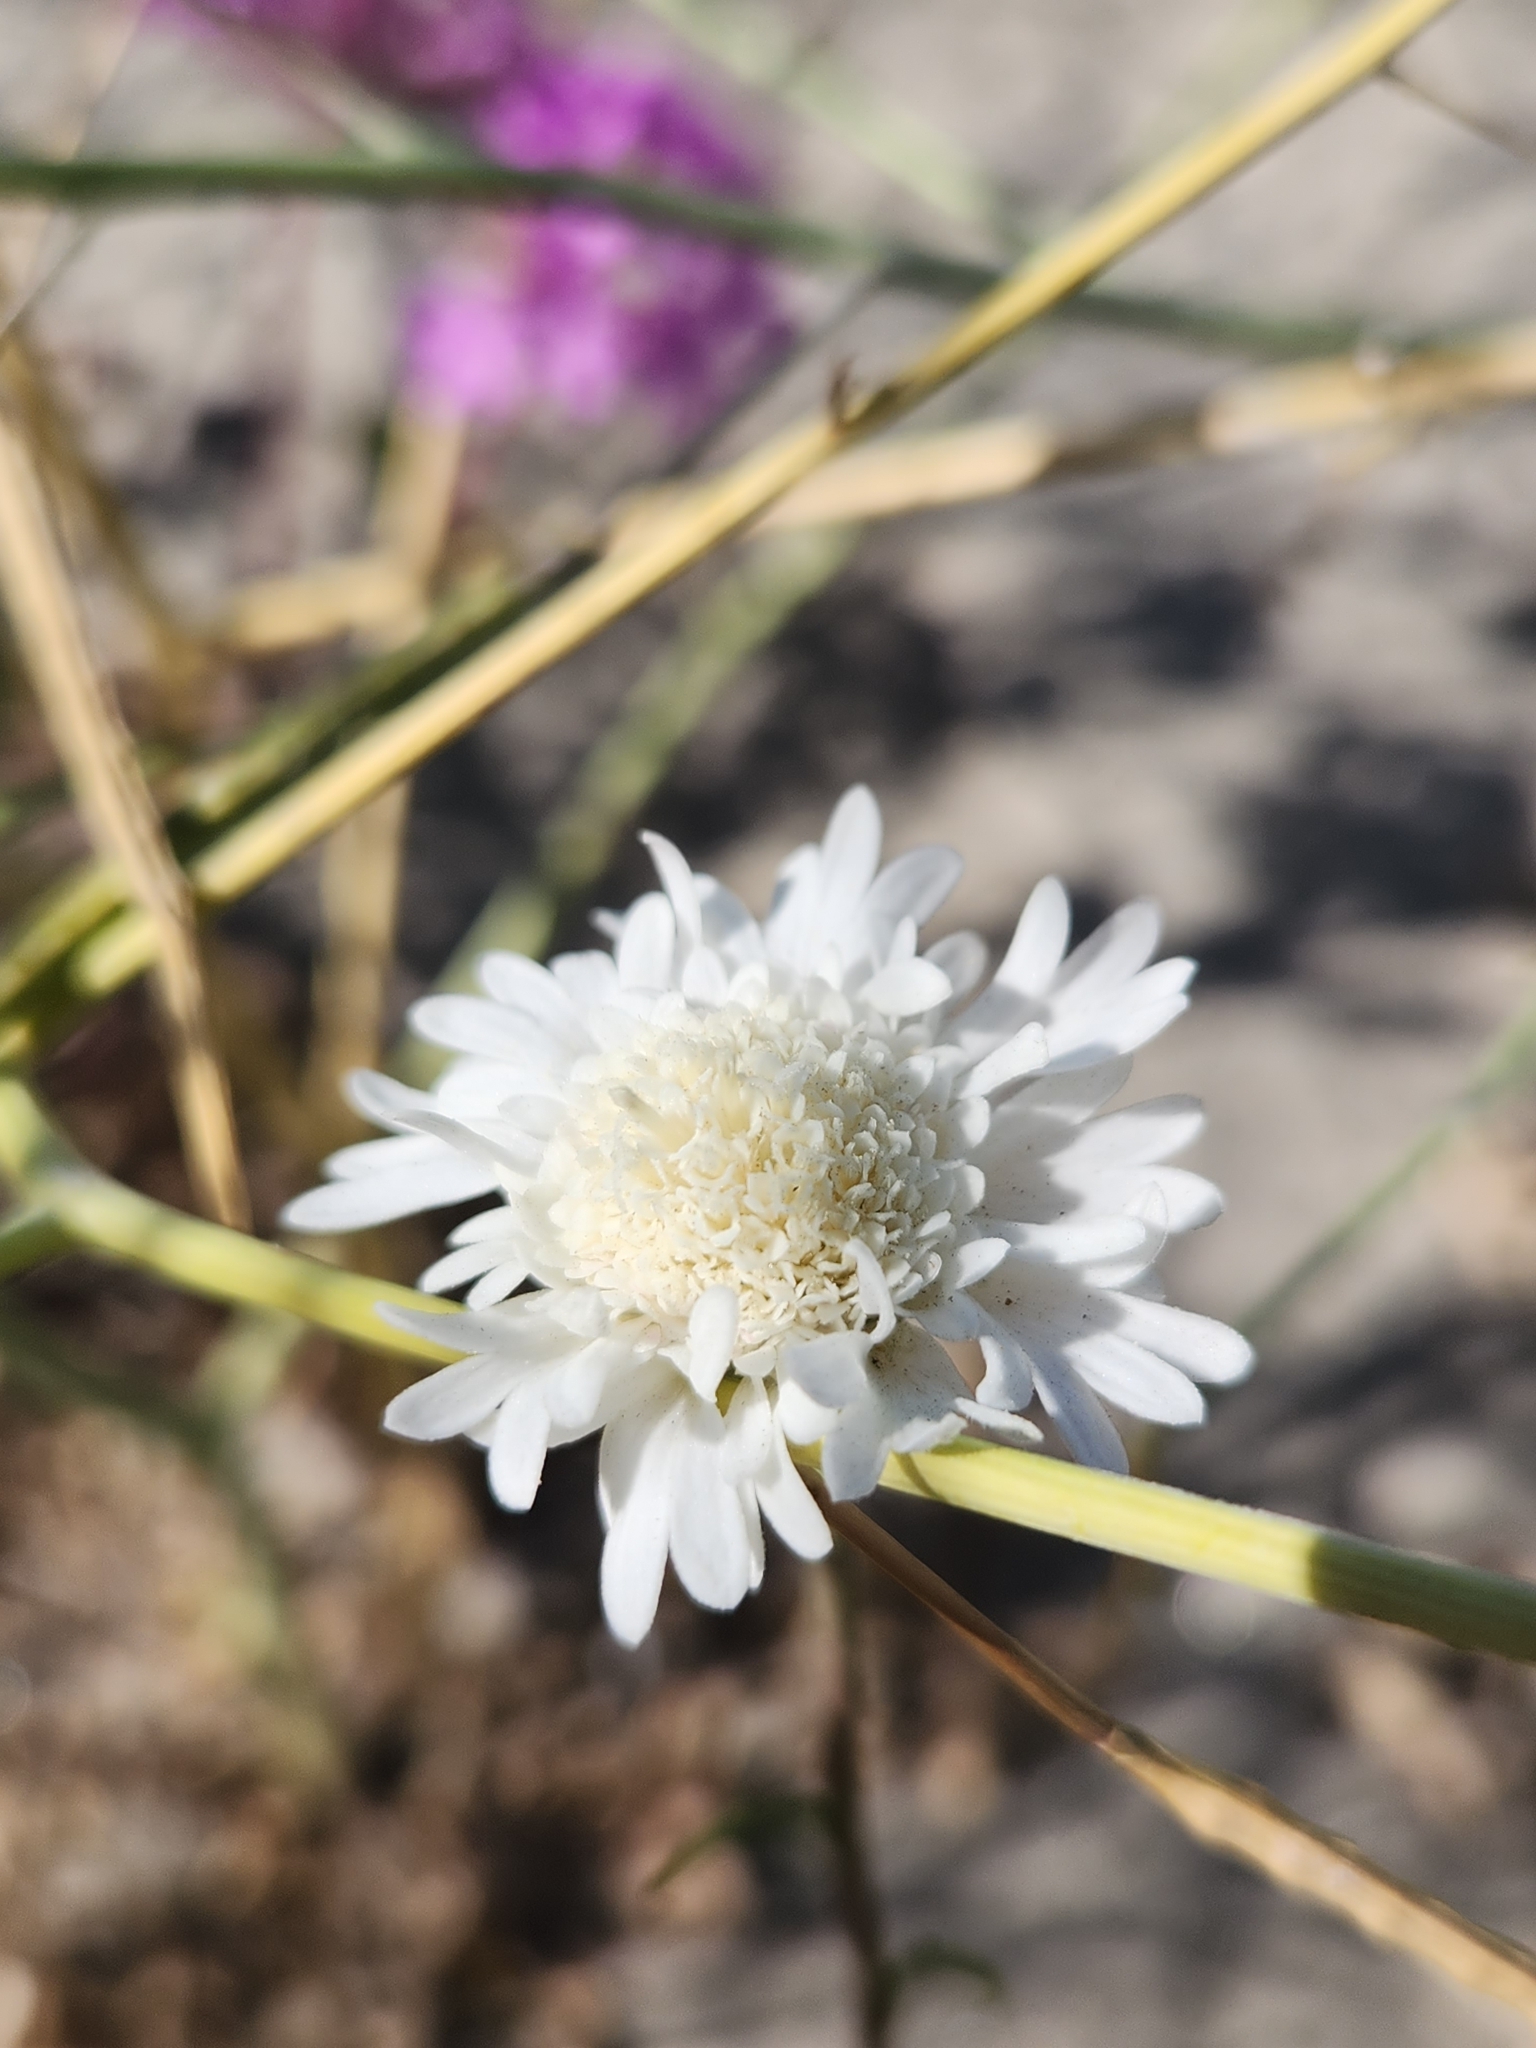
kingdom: Plantae
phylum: Tracheophyta
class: Magnoliopsida
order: Asterales
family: Asteraceae
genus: Chaenactis
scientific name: Chaenactis fremontii
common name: Fremont pincushion
